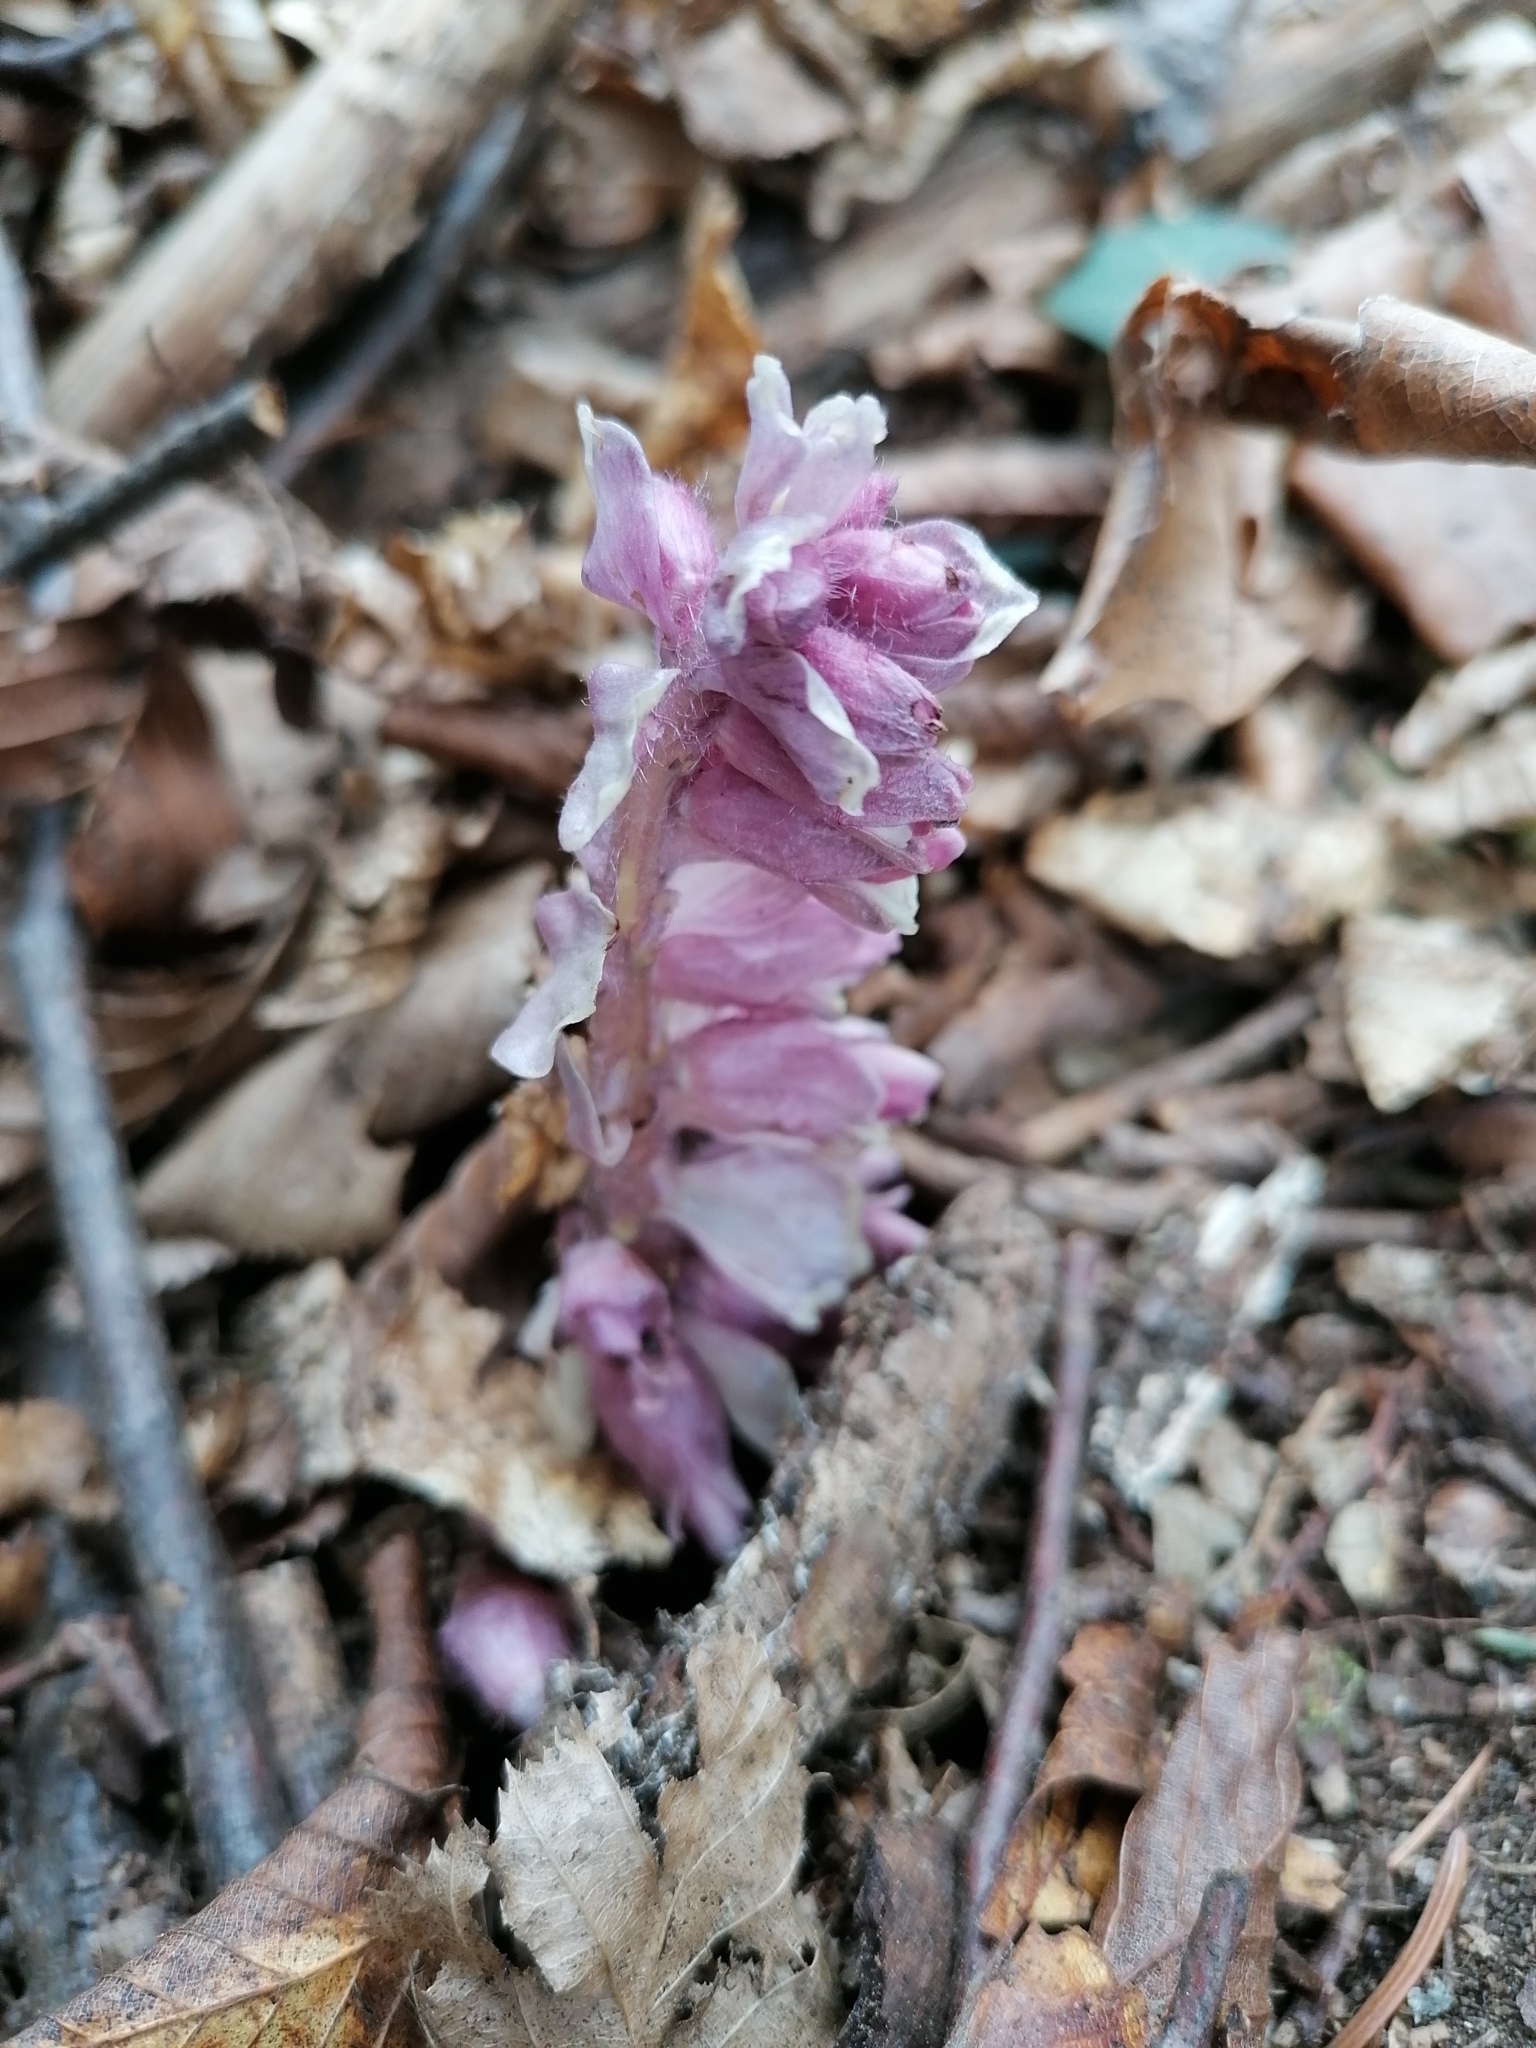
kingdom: Plantae
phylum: Tracheophyta
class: Magnoliopsida
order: Lamiales
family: Orobanchaceae
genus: Lathraea
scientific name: Lathraea squamaria
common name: Toothwort
